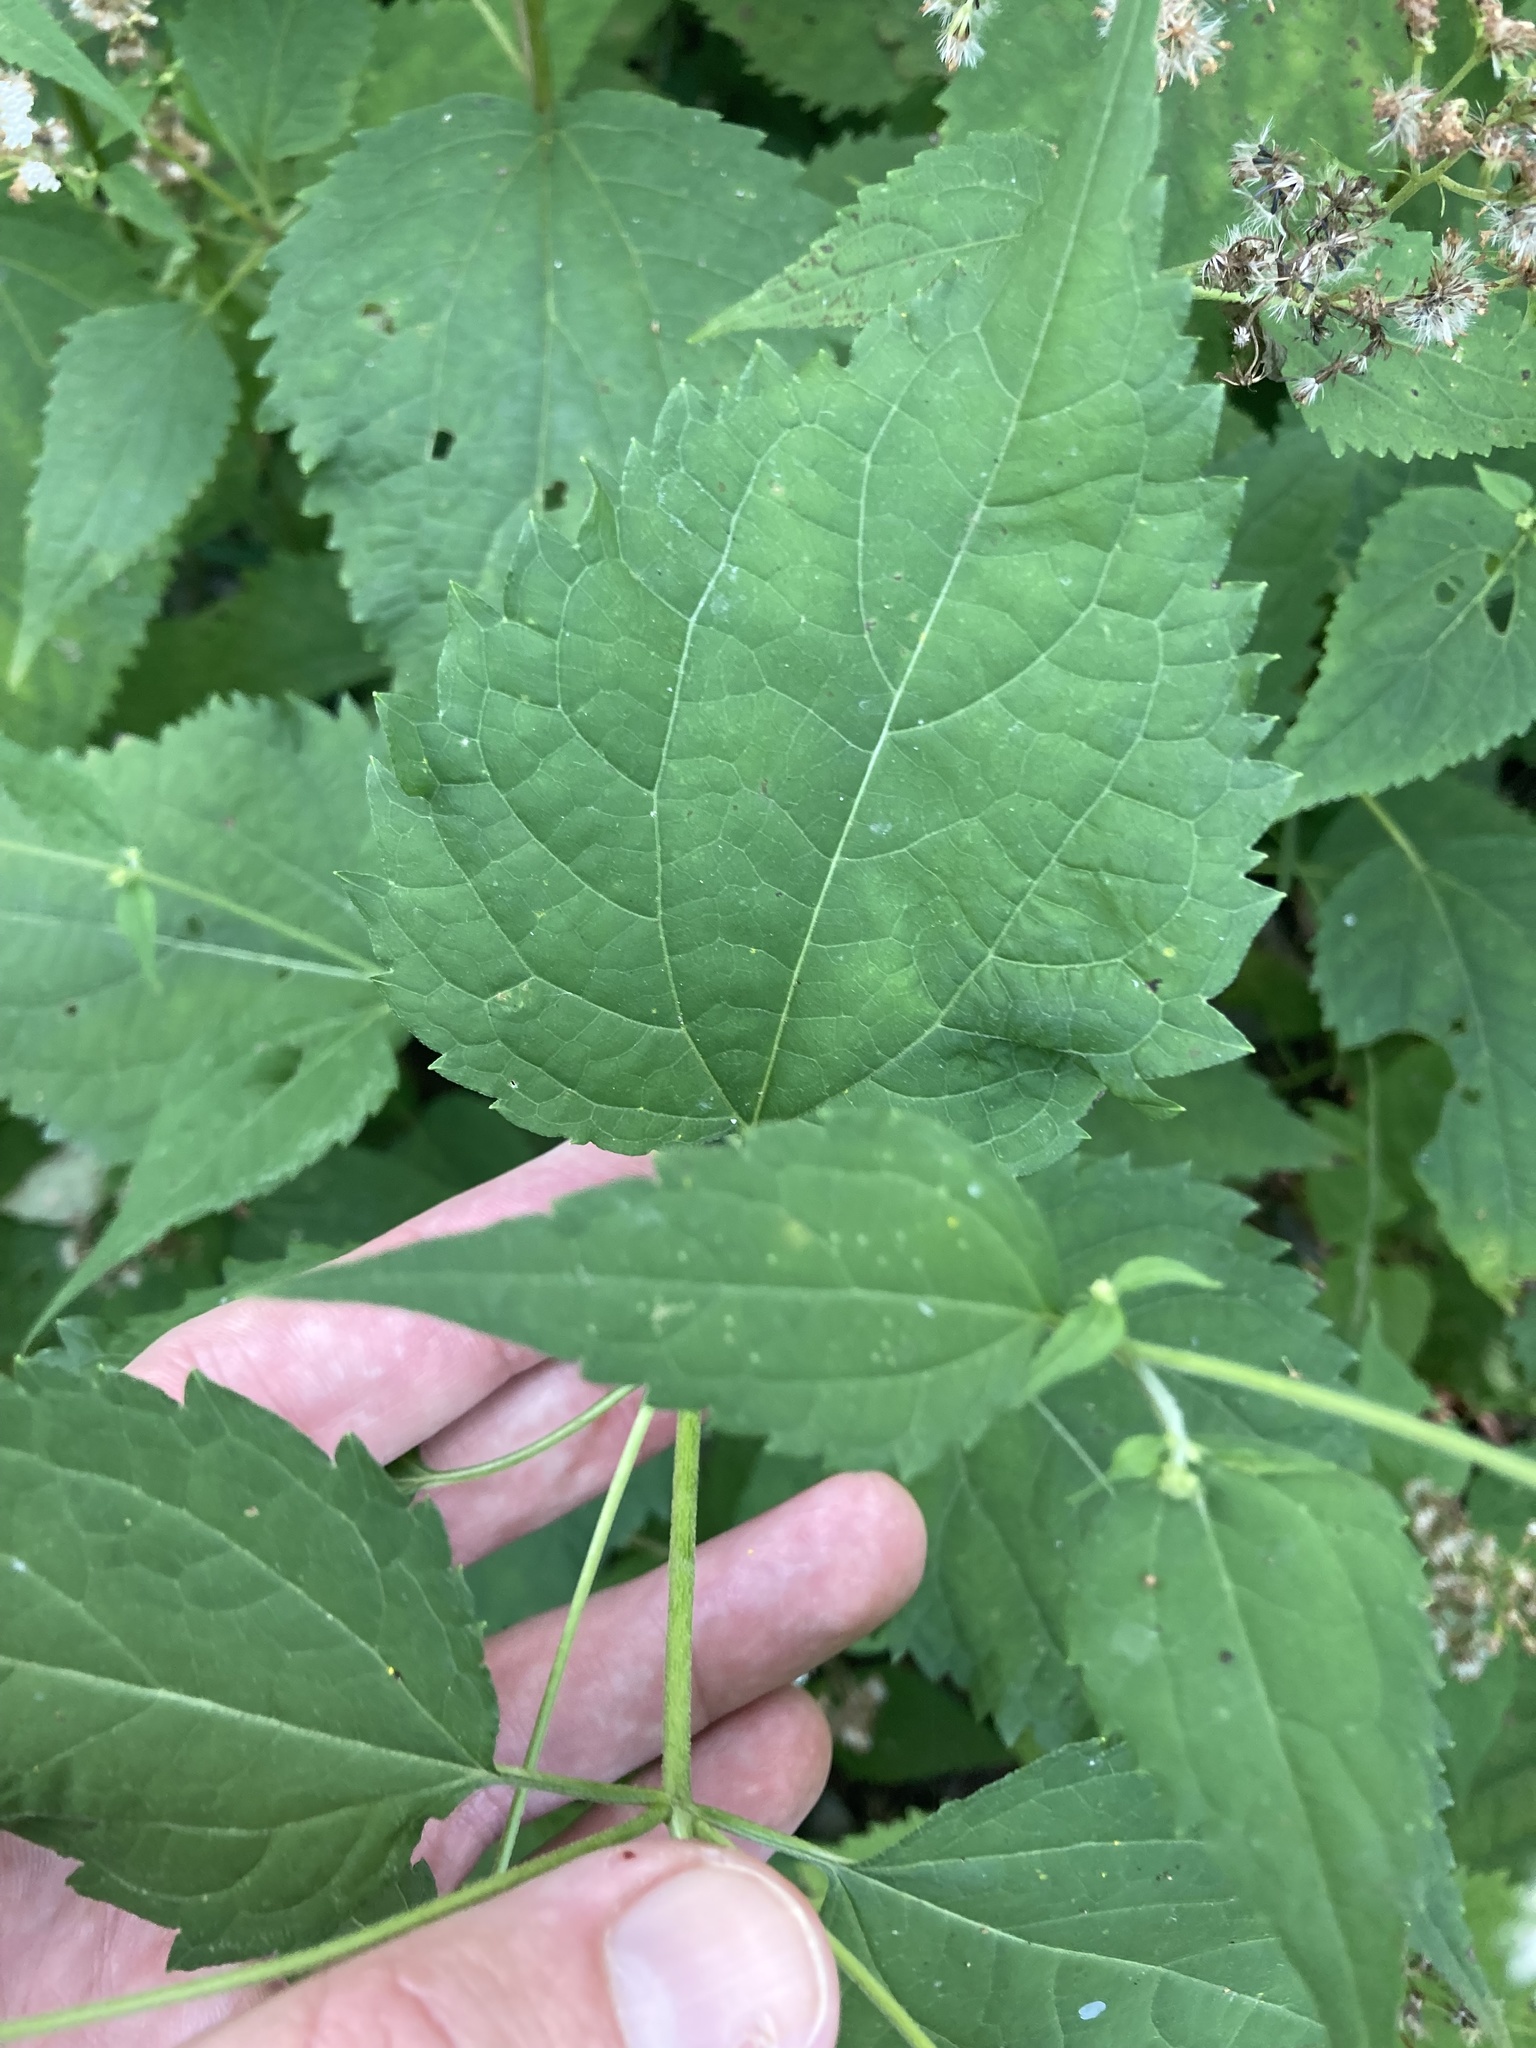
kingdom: Plantae
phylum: Tracheophyta
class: Magnoliopsida
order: Asterales
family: Asteraceae
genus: Ageratina
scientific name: Ageratina altissima
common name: White snakeroot
